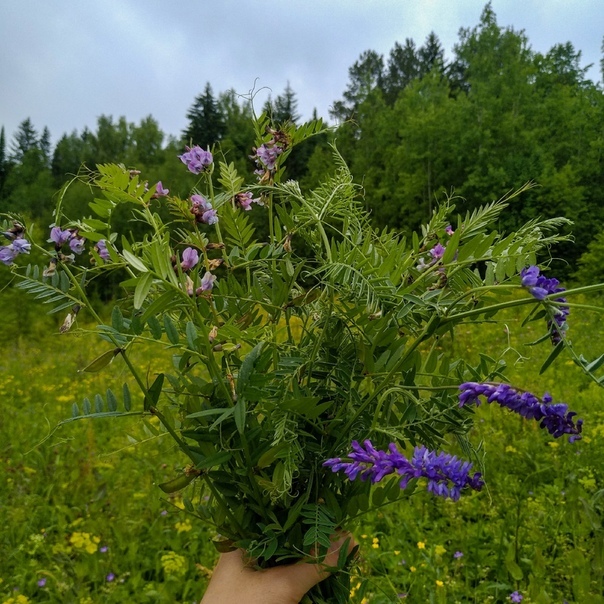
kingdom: Plantae
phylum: Tracheophyta
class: Magnoliopsida
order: Fabales
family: Fabaceae
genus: Vicia
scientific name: Vicia sepium
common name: Bush vetch
